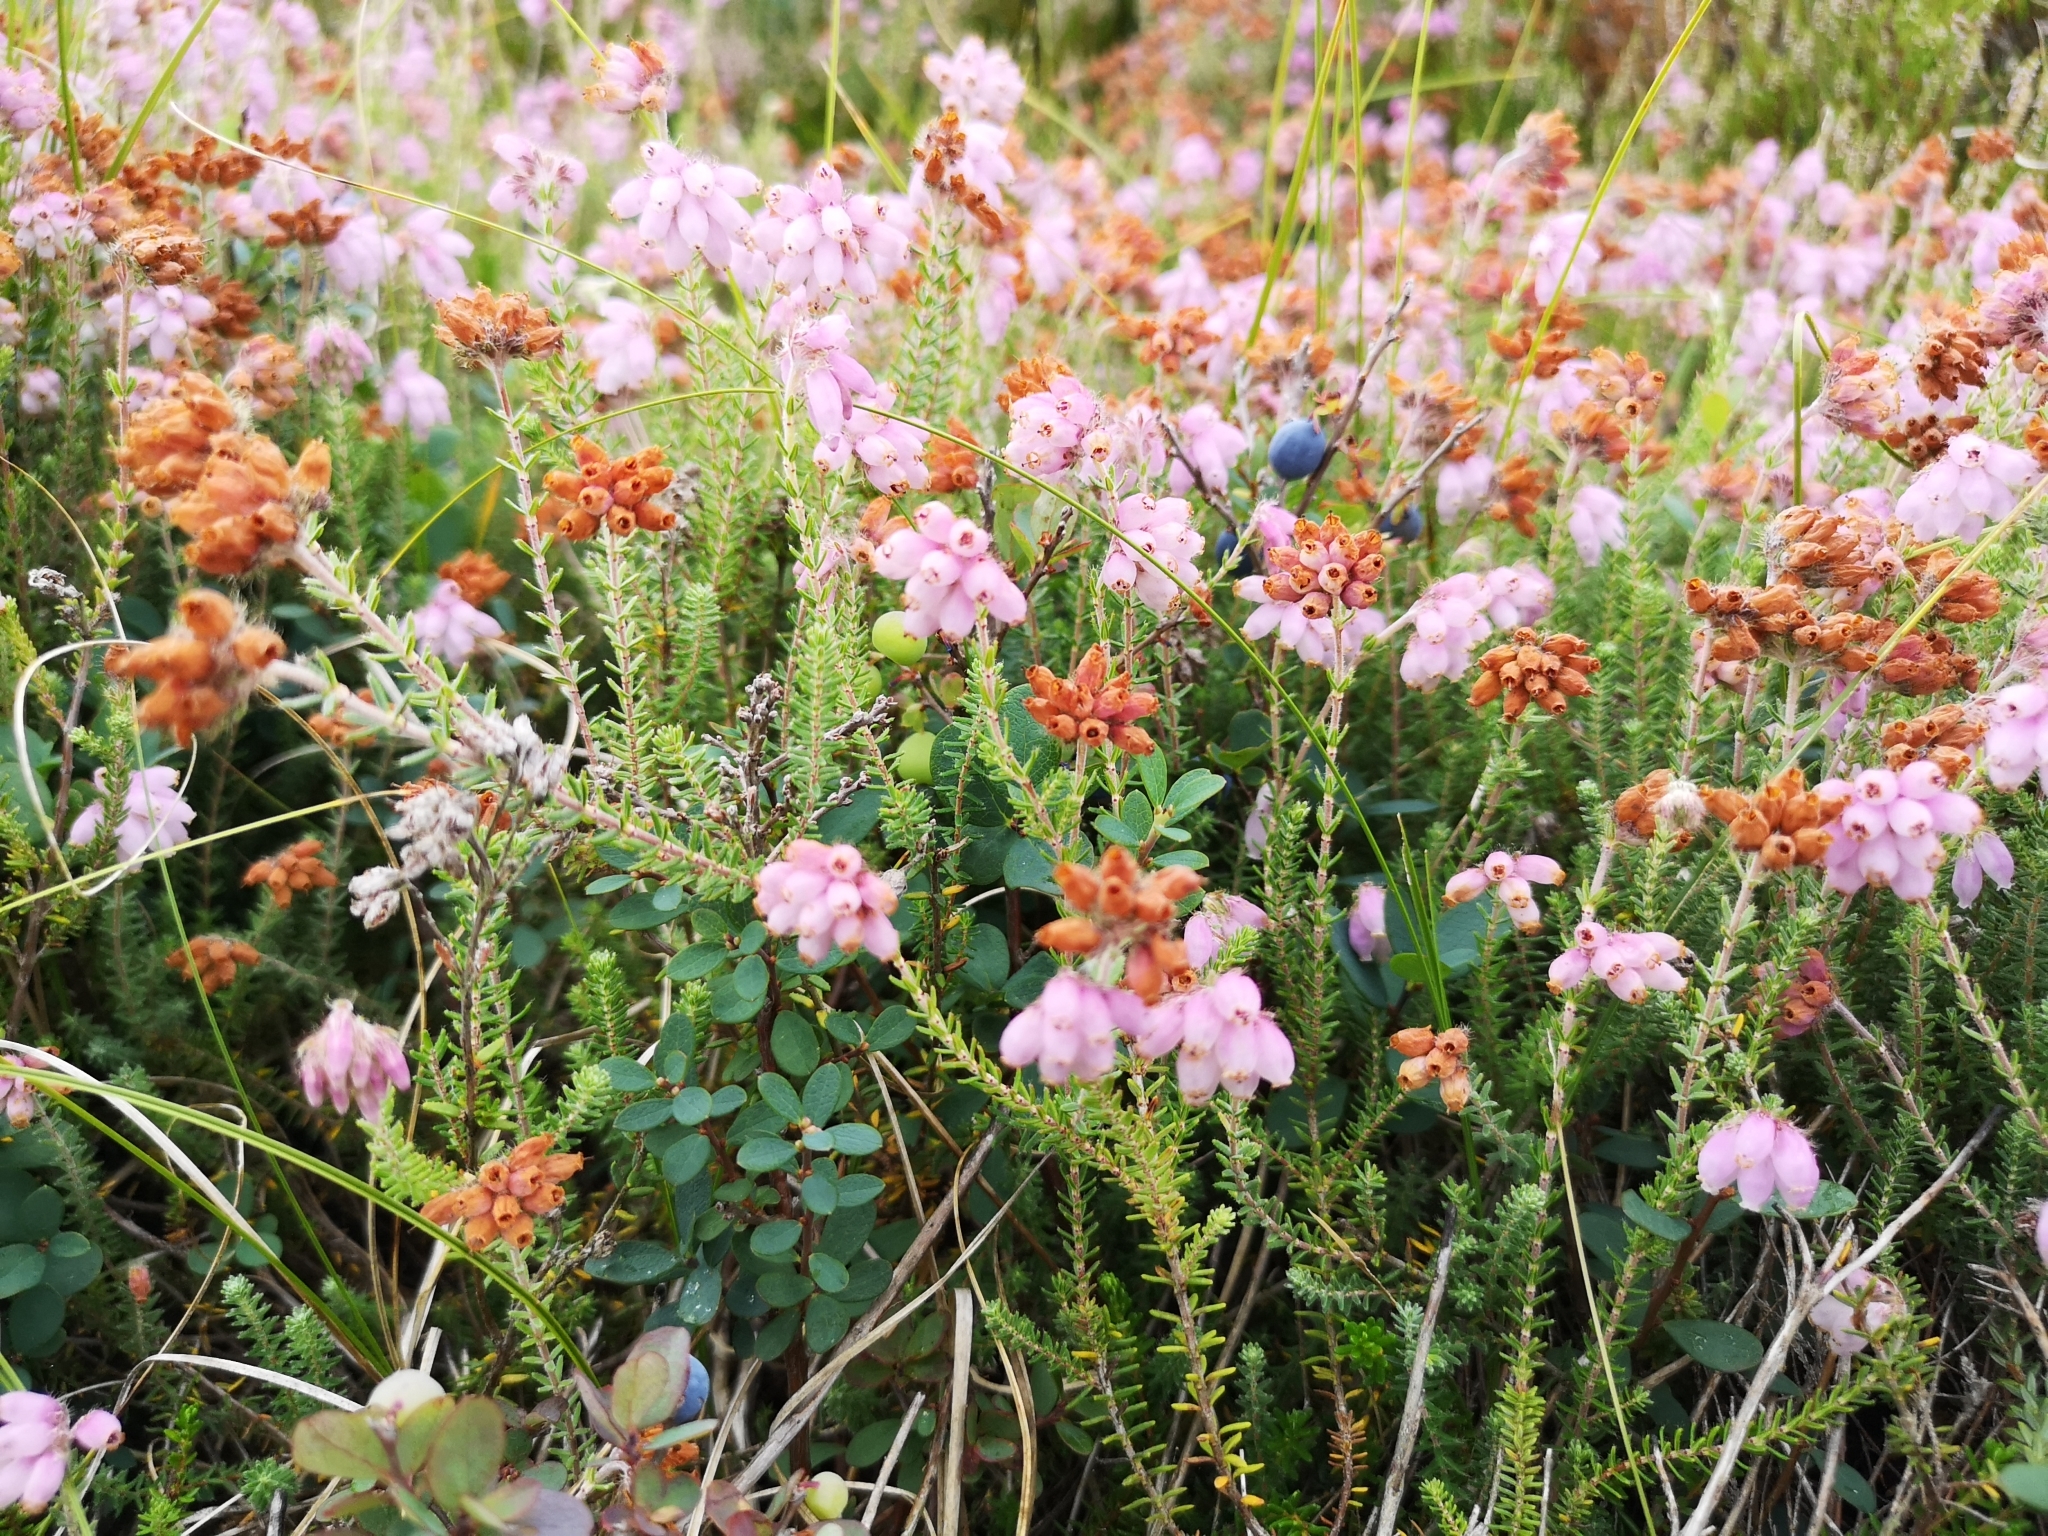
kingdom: Plantae
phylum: Tracheophyta
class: Magnoliopsida
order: Ericales
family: Ericaceae
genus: Erica
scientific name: Erica tetralix
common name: Cross-leaved heath
